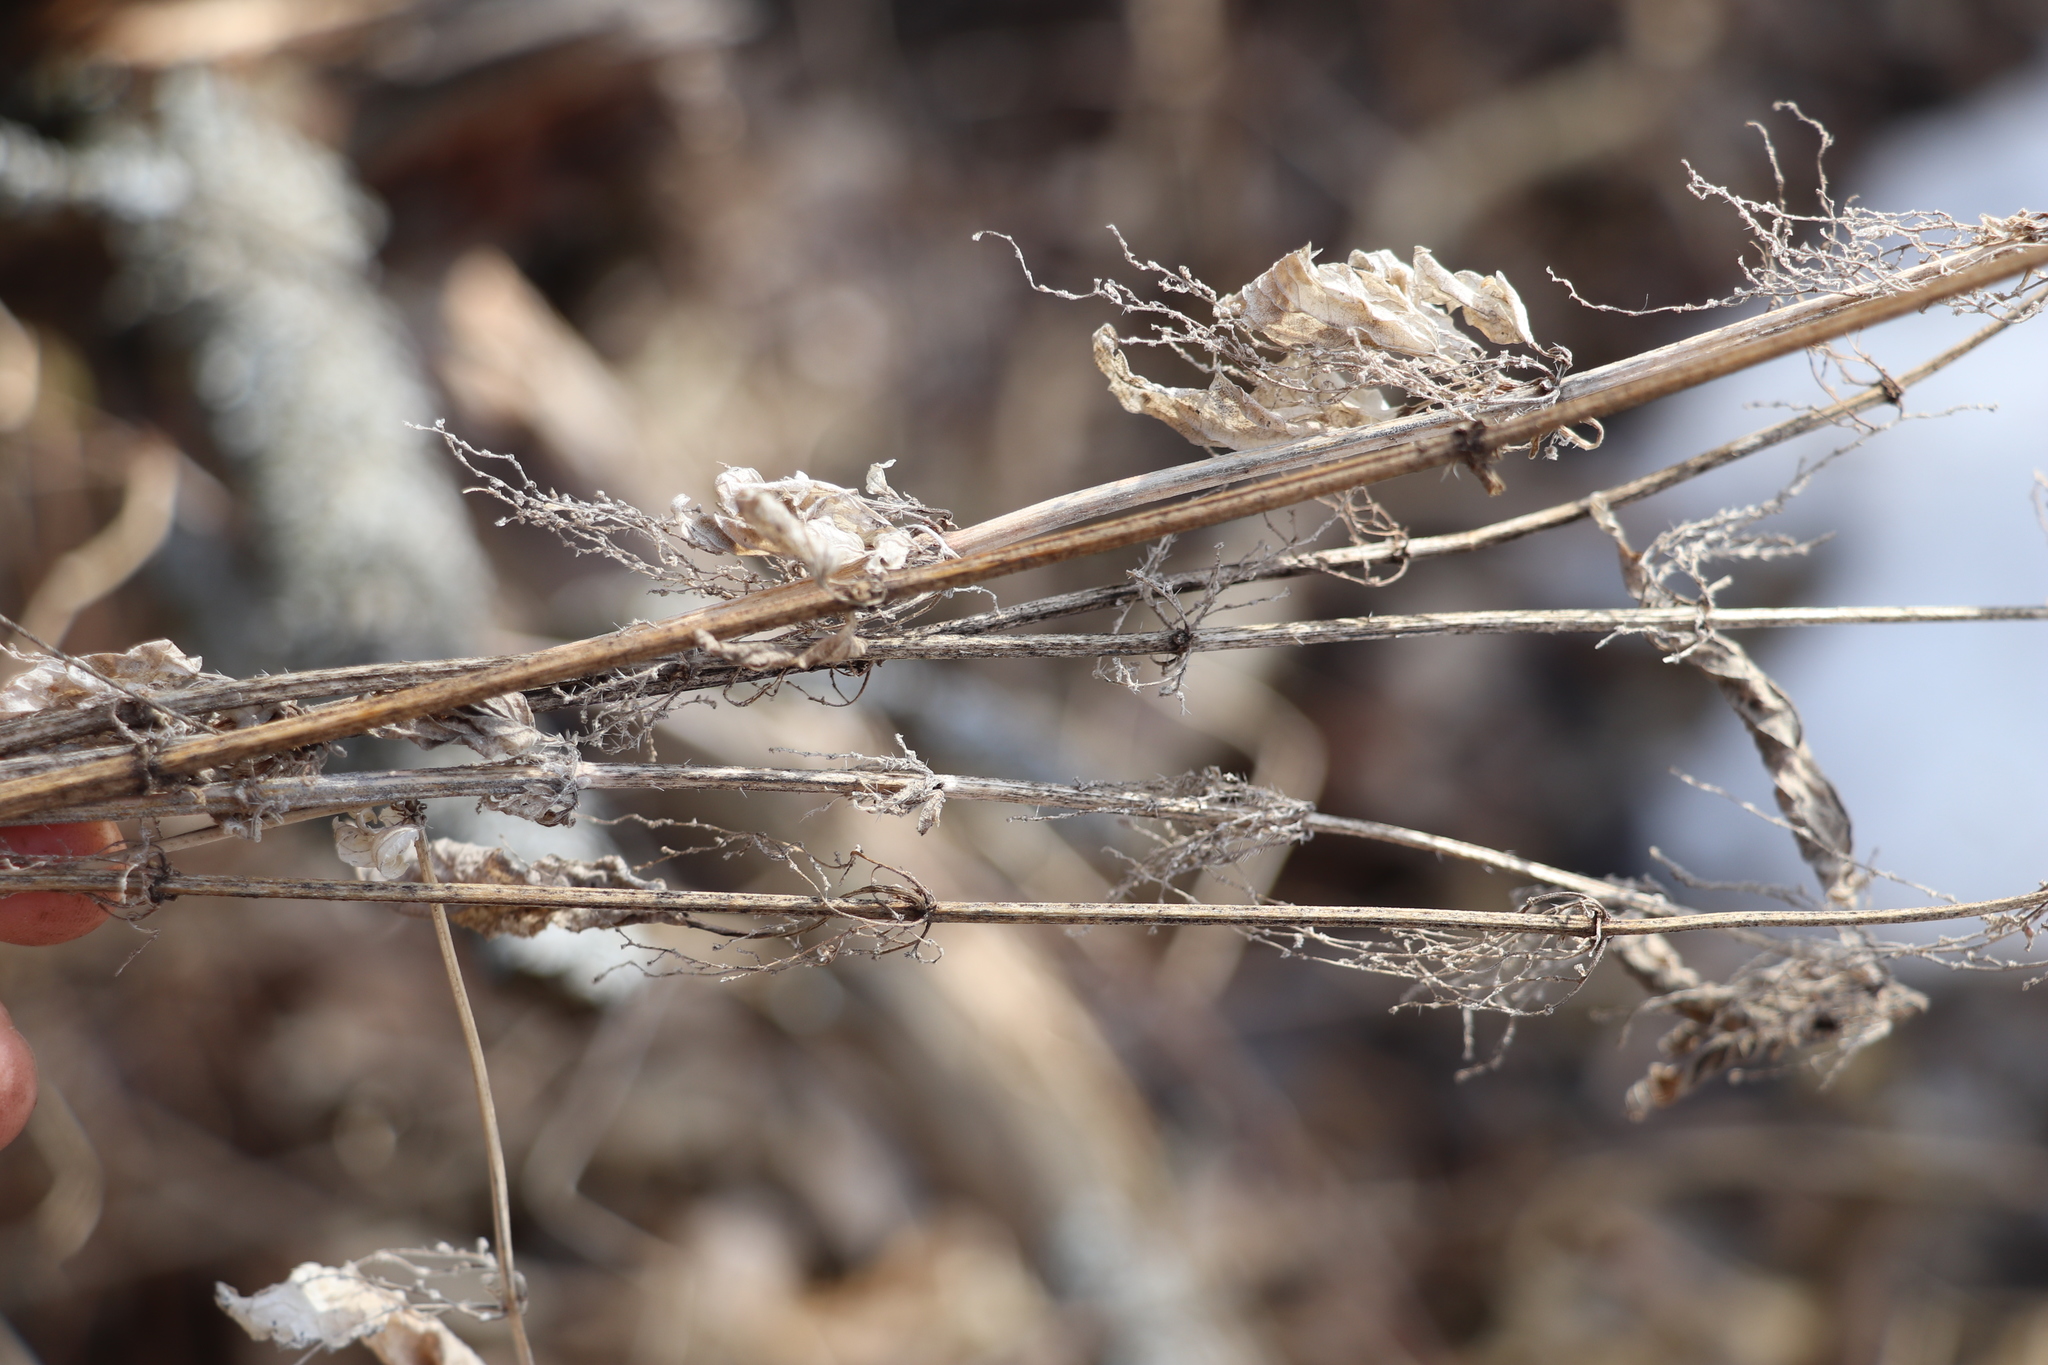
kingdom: Plantae
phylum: Tracheophyta
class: Magnoliopsida
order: Rosales
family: Urticaceae
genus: Urtica
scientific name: Urtica dioica
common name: Common nettle
